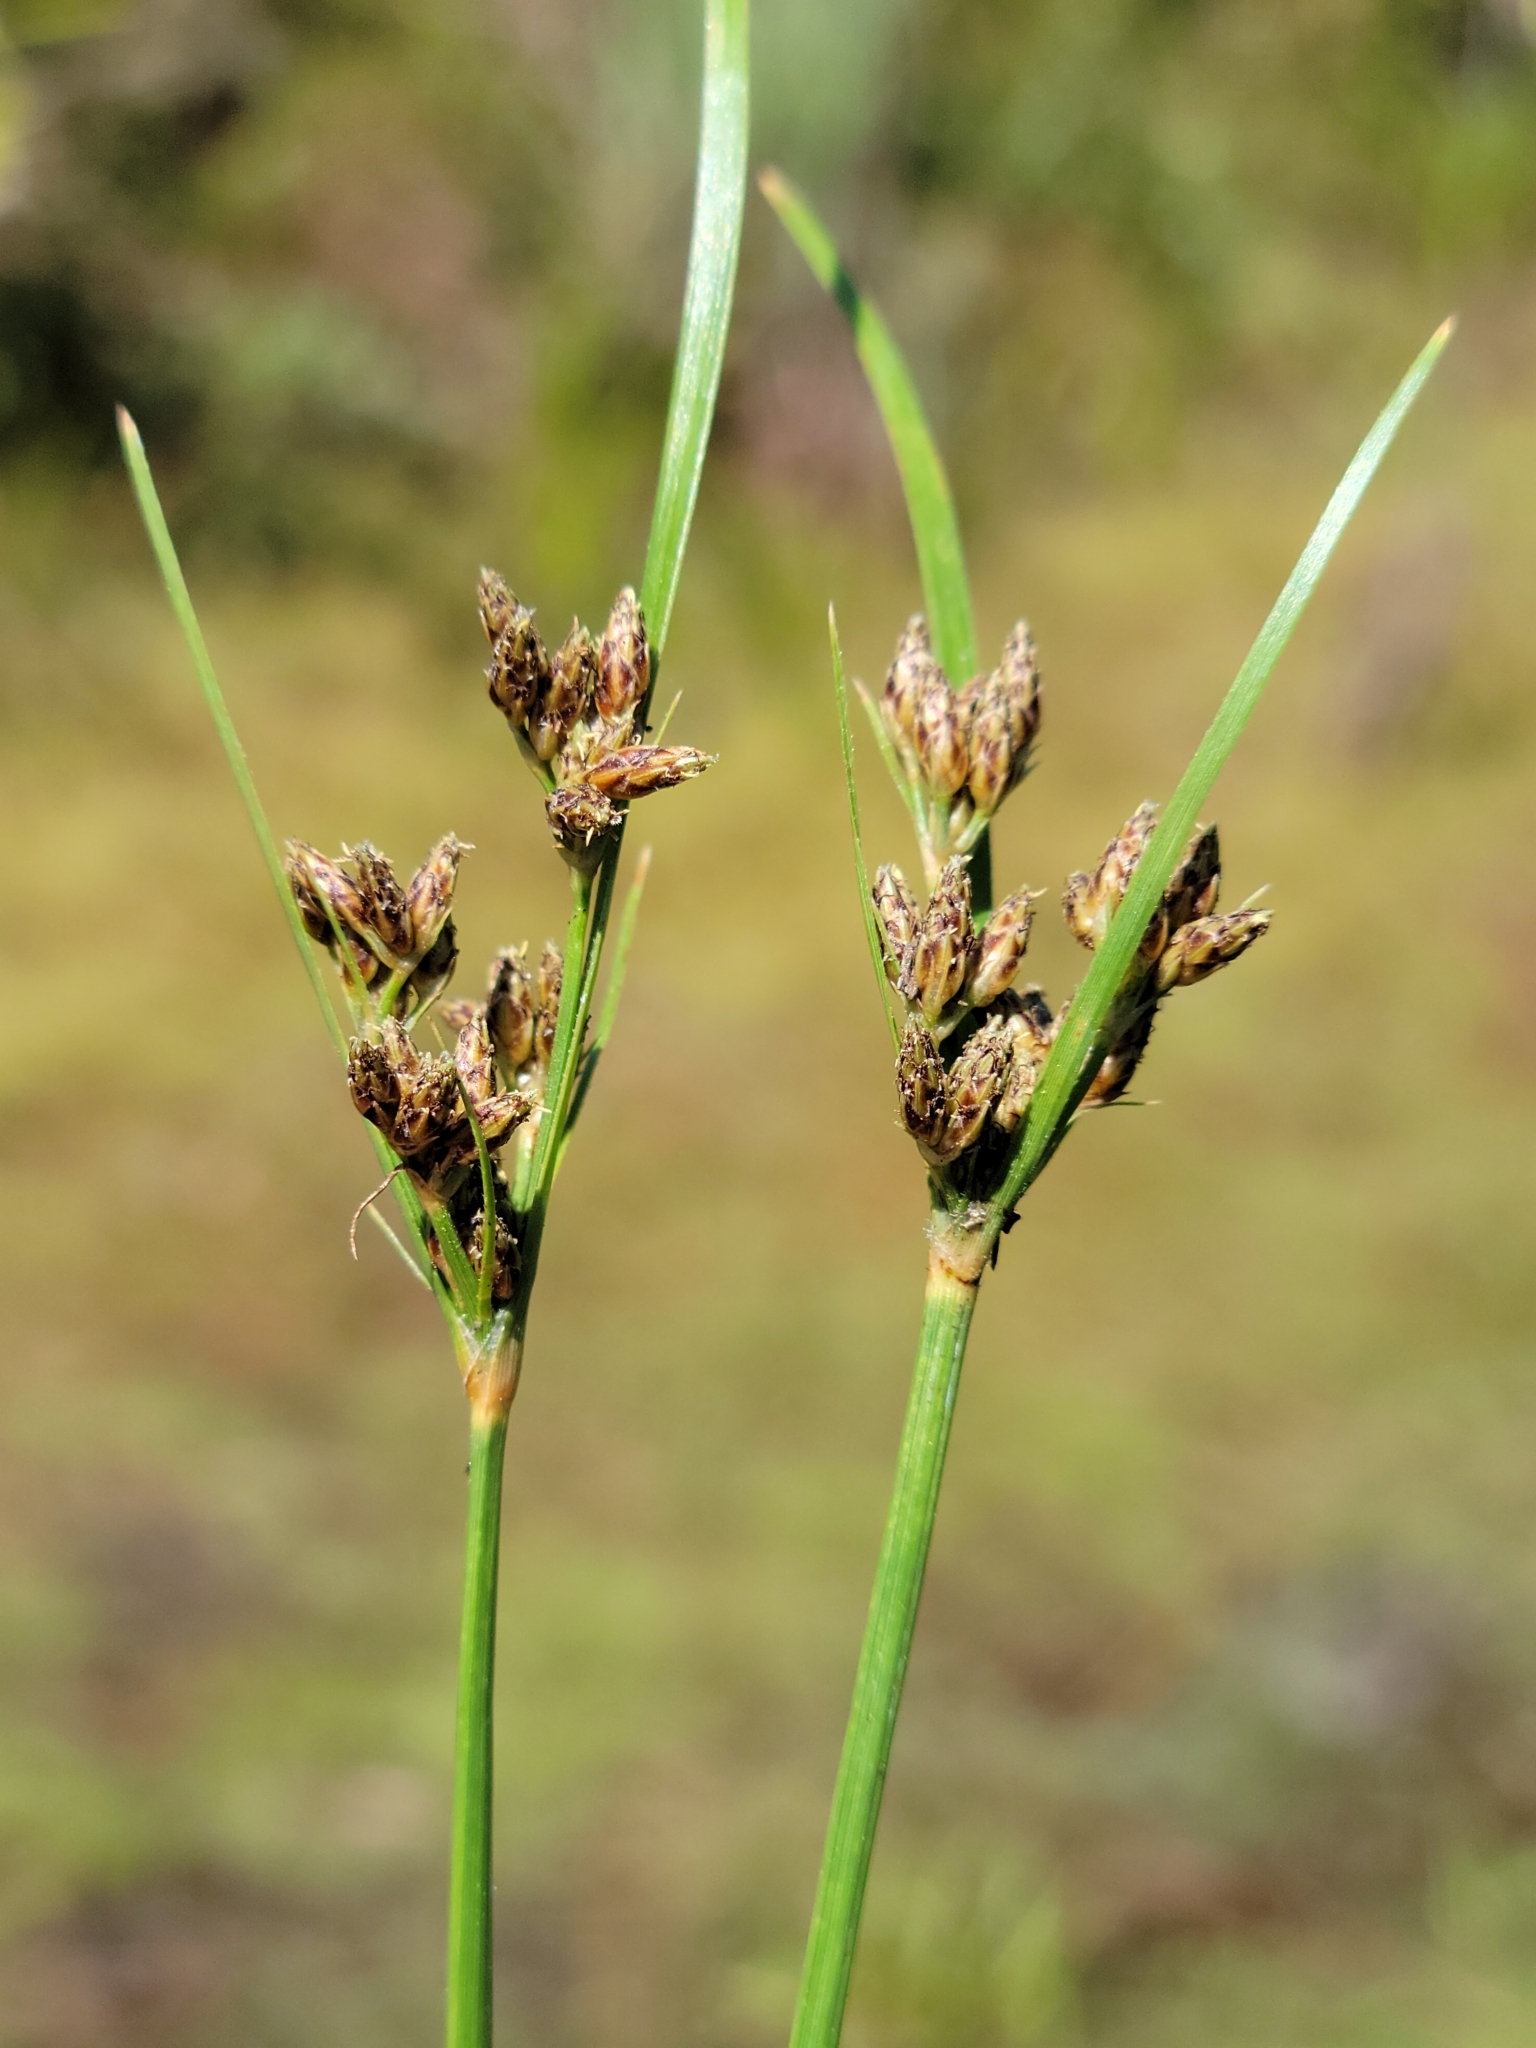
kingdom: Plantae
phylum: Tracheophyta
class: Liliopsida
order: Poales
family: Cyperaceae
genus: Fimbristylis
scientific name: Fimbristylis dichotoma
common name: Forked fimbry
